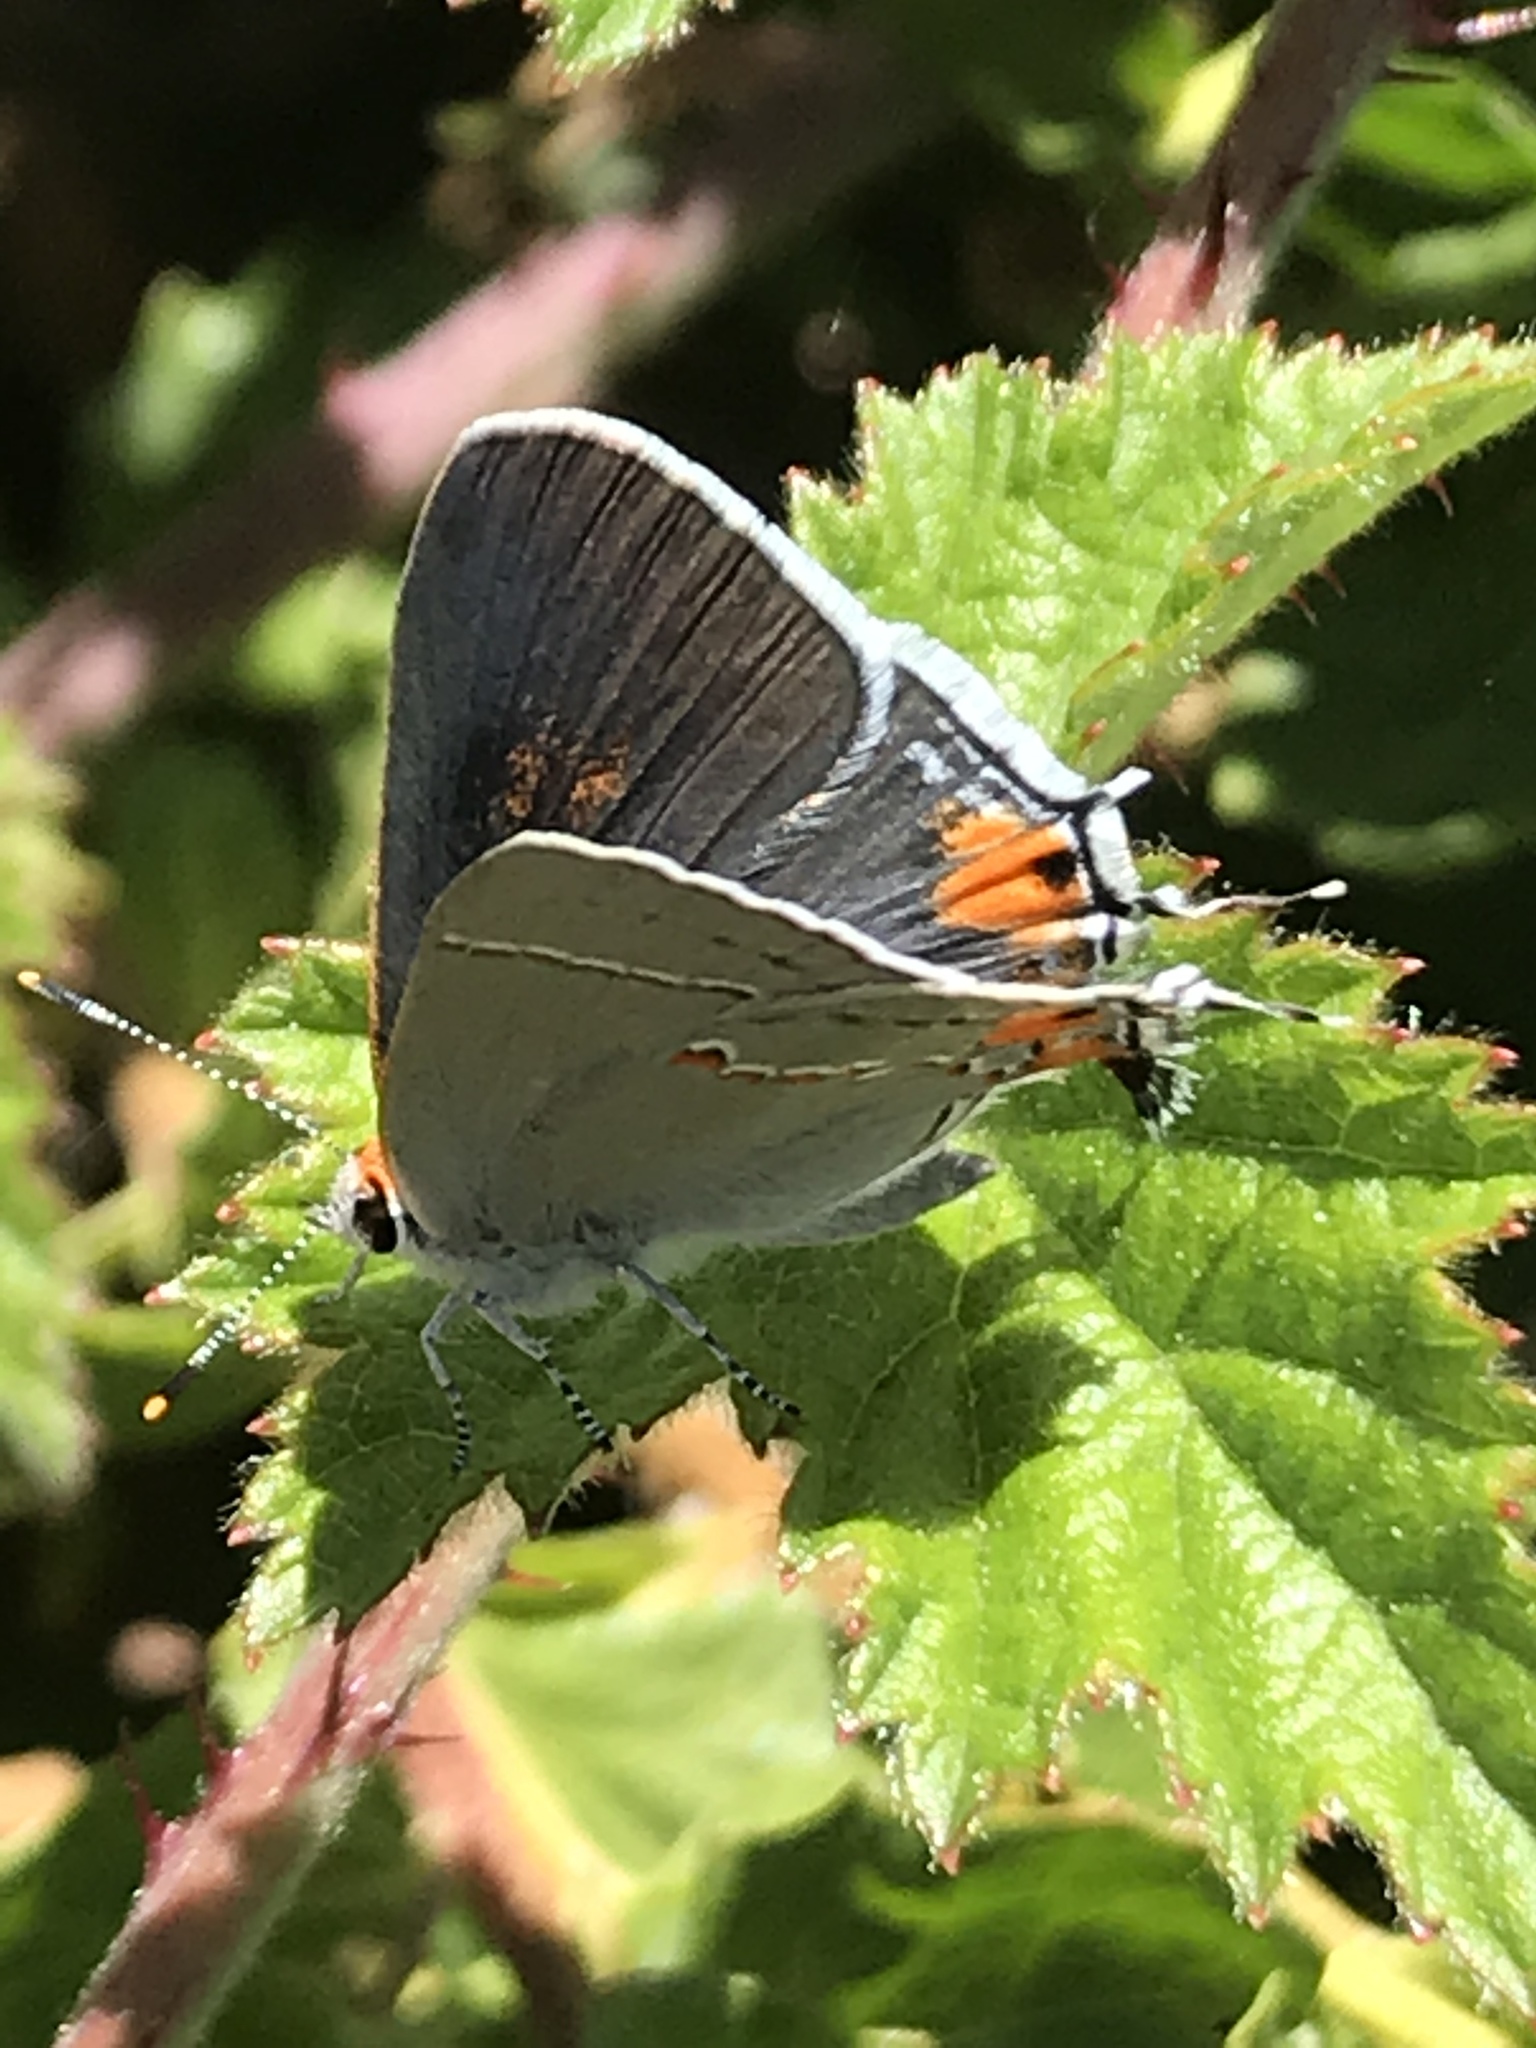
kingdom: Animalia
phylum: Arthropoda
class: Insecta
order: Lepidoptera
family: Lycaenidae
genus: Strymon
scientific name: Strymon melinus
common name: Gray hairstreak
